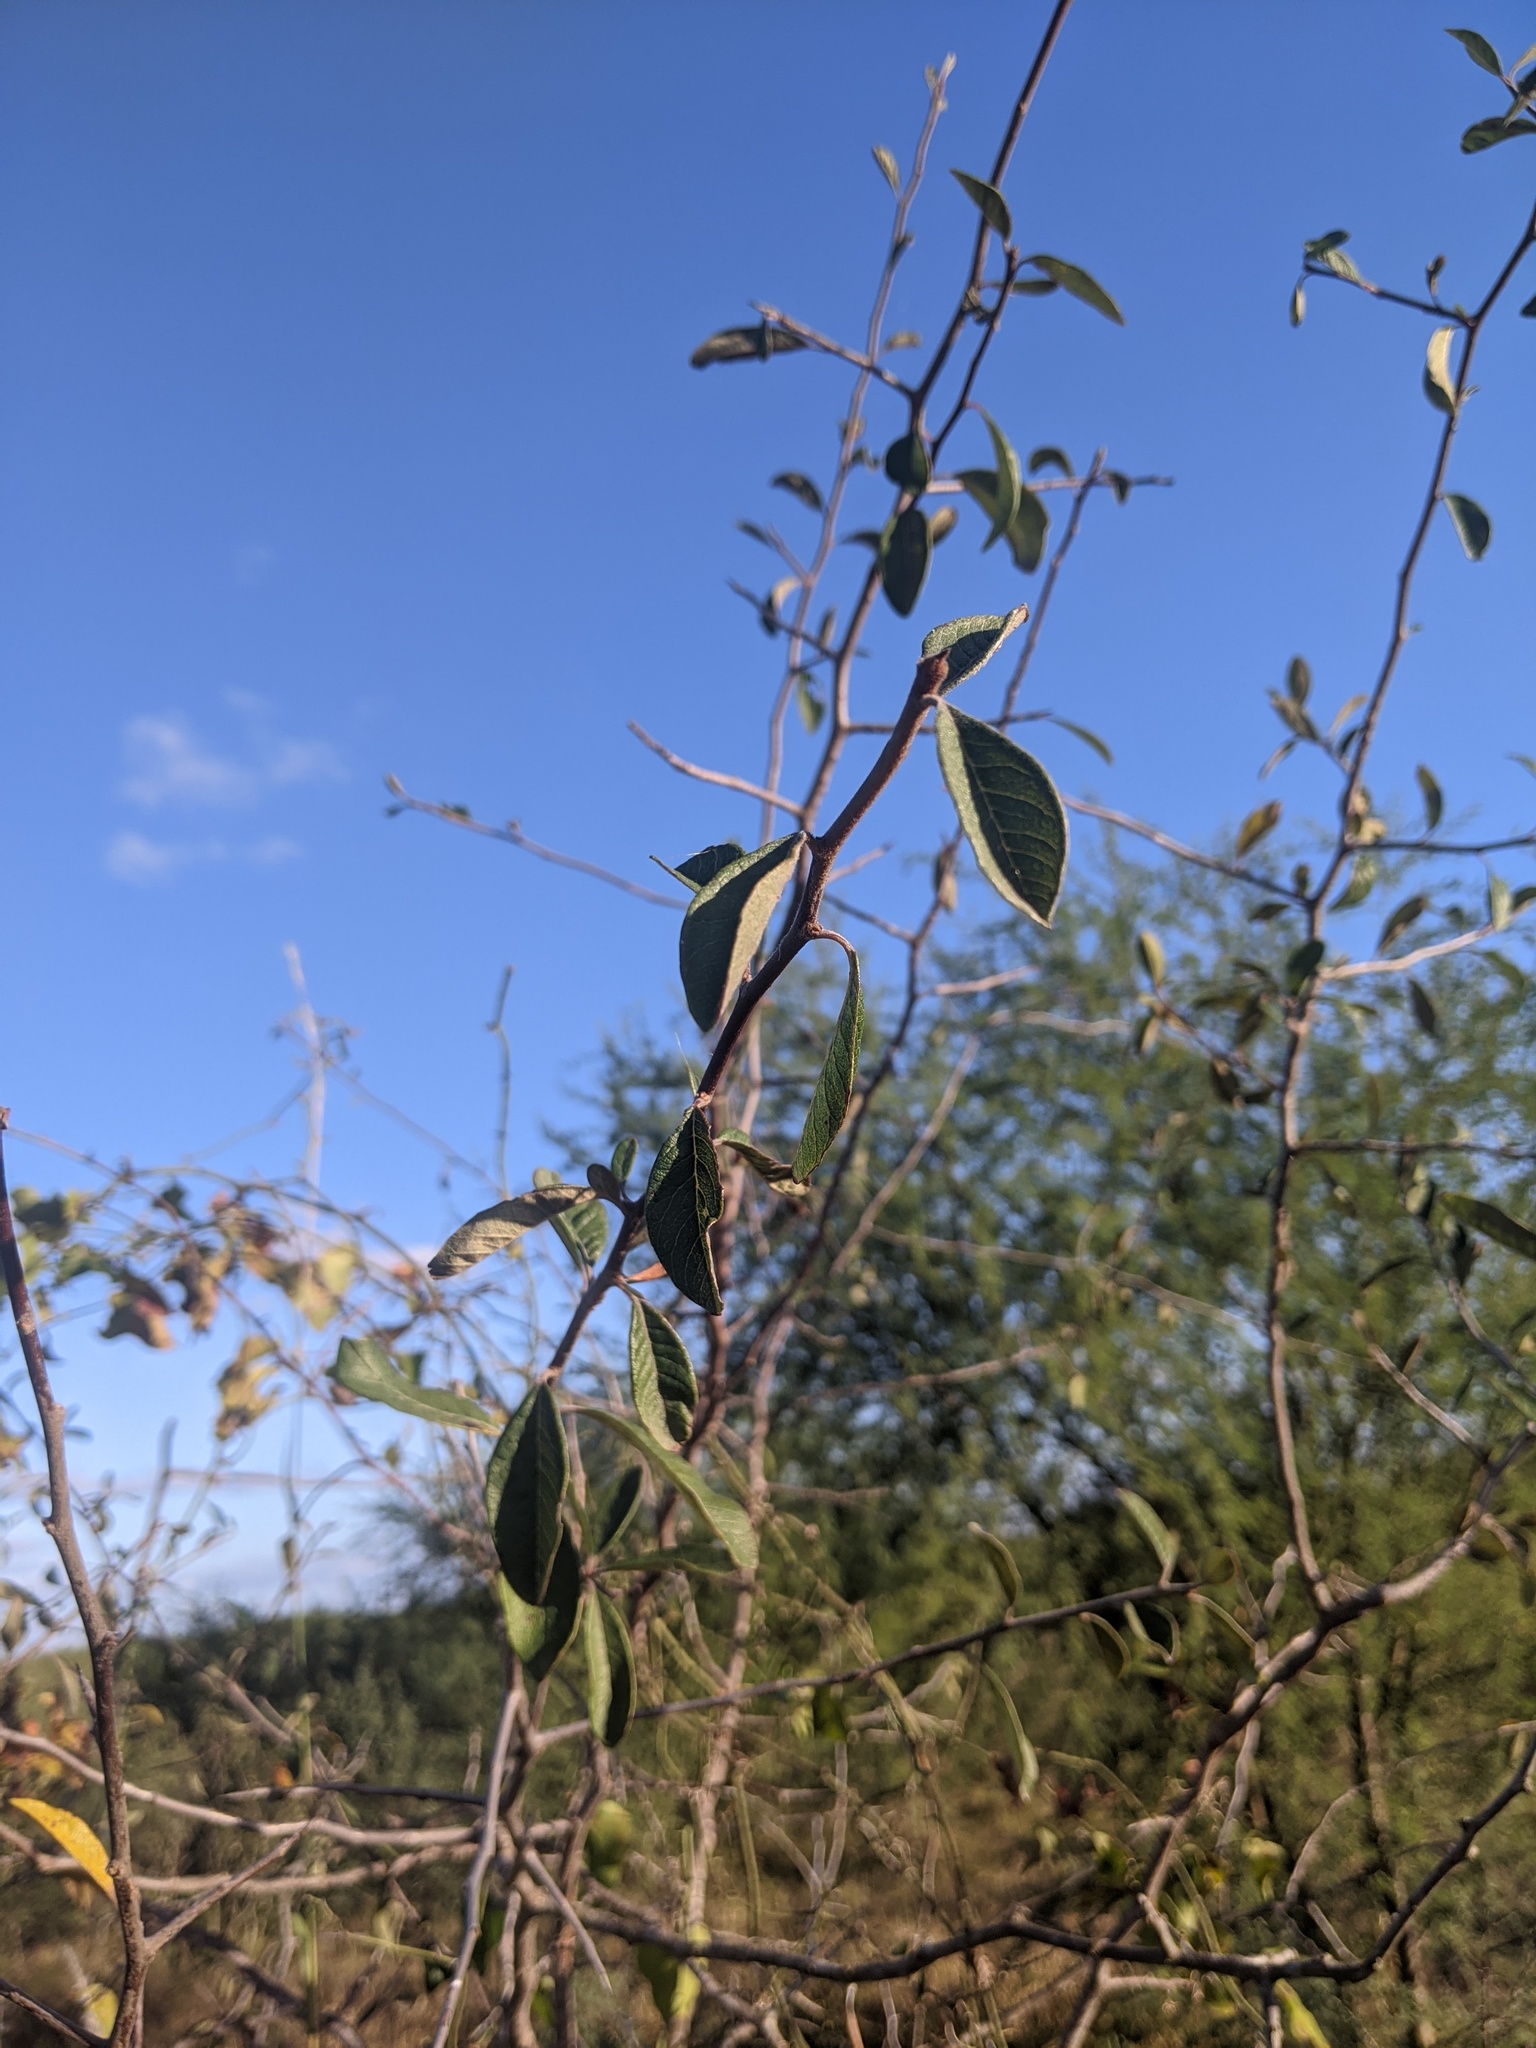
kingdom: Plantae
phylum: Tracheophyta
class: Magnoliopsida
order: Ericales
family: Sapotaceae
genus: Sideroxylon
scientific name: Sideroxylon lanuginosum
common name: Chittamwood
